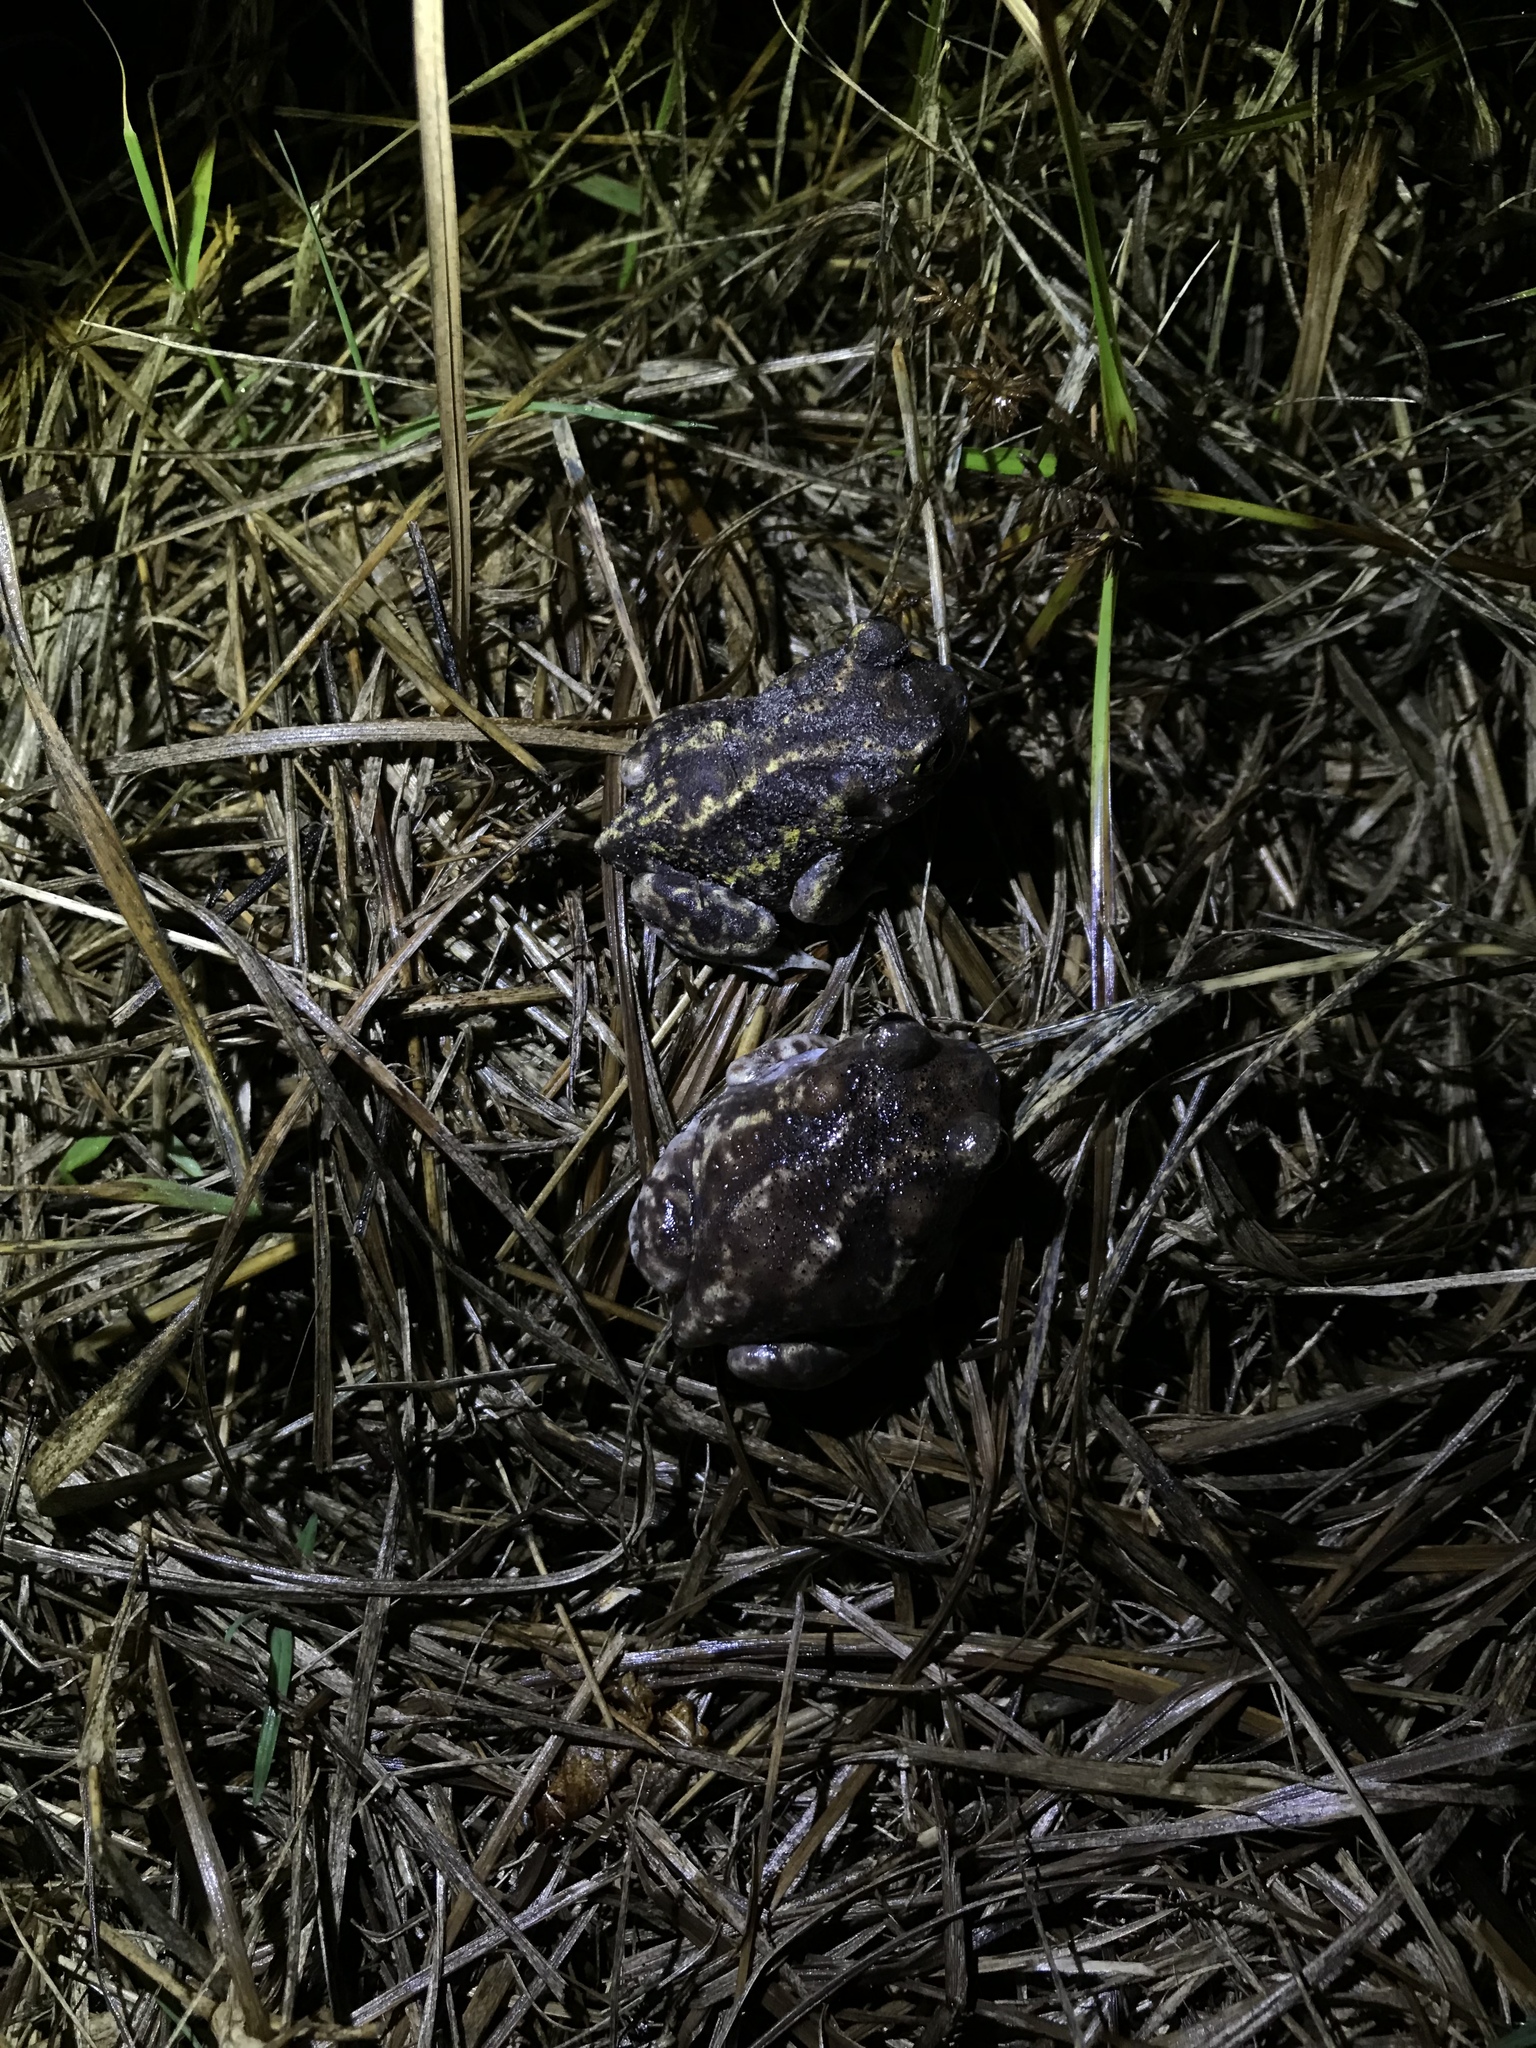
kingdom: Animalia
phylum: Chordata
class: Amphibia
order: Anura
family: Scaphiopodidae
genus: Scaphiopus
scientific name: Scaphiopus holbrookii
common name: Eastern spadefoot toad
